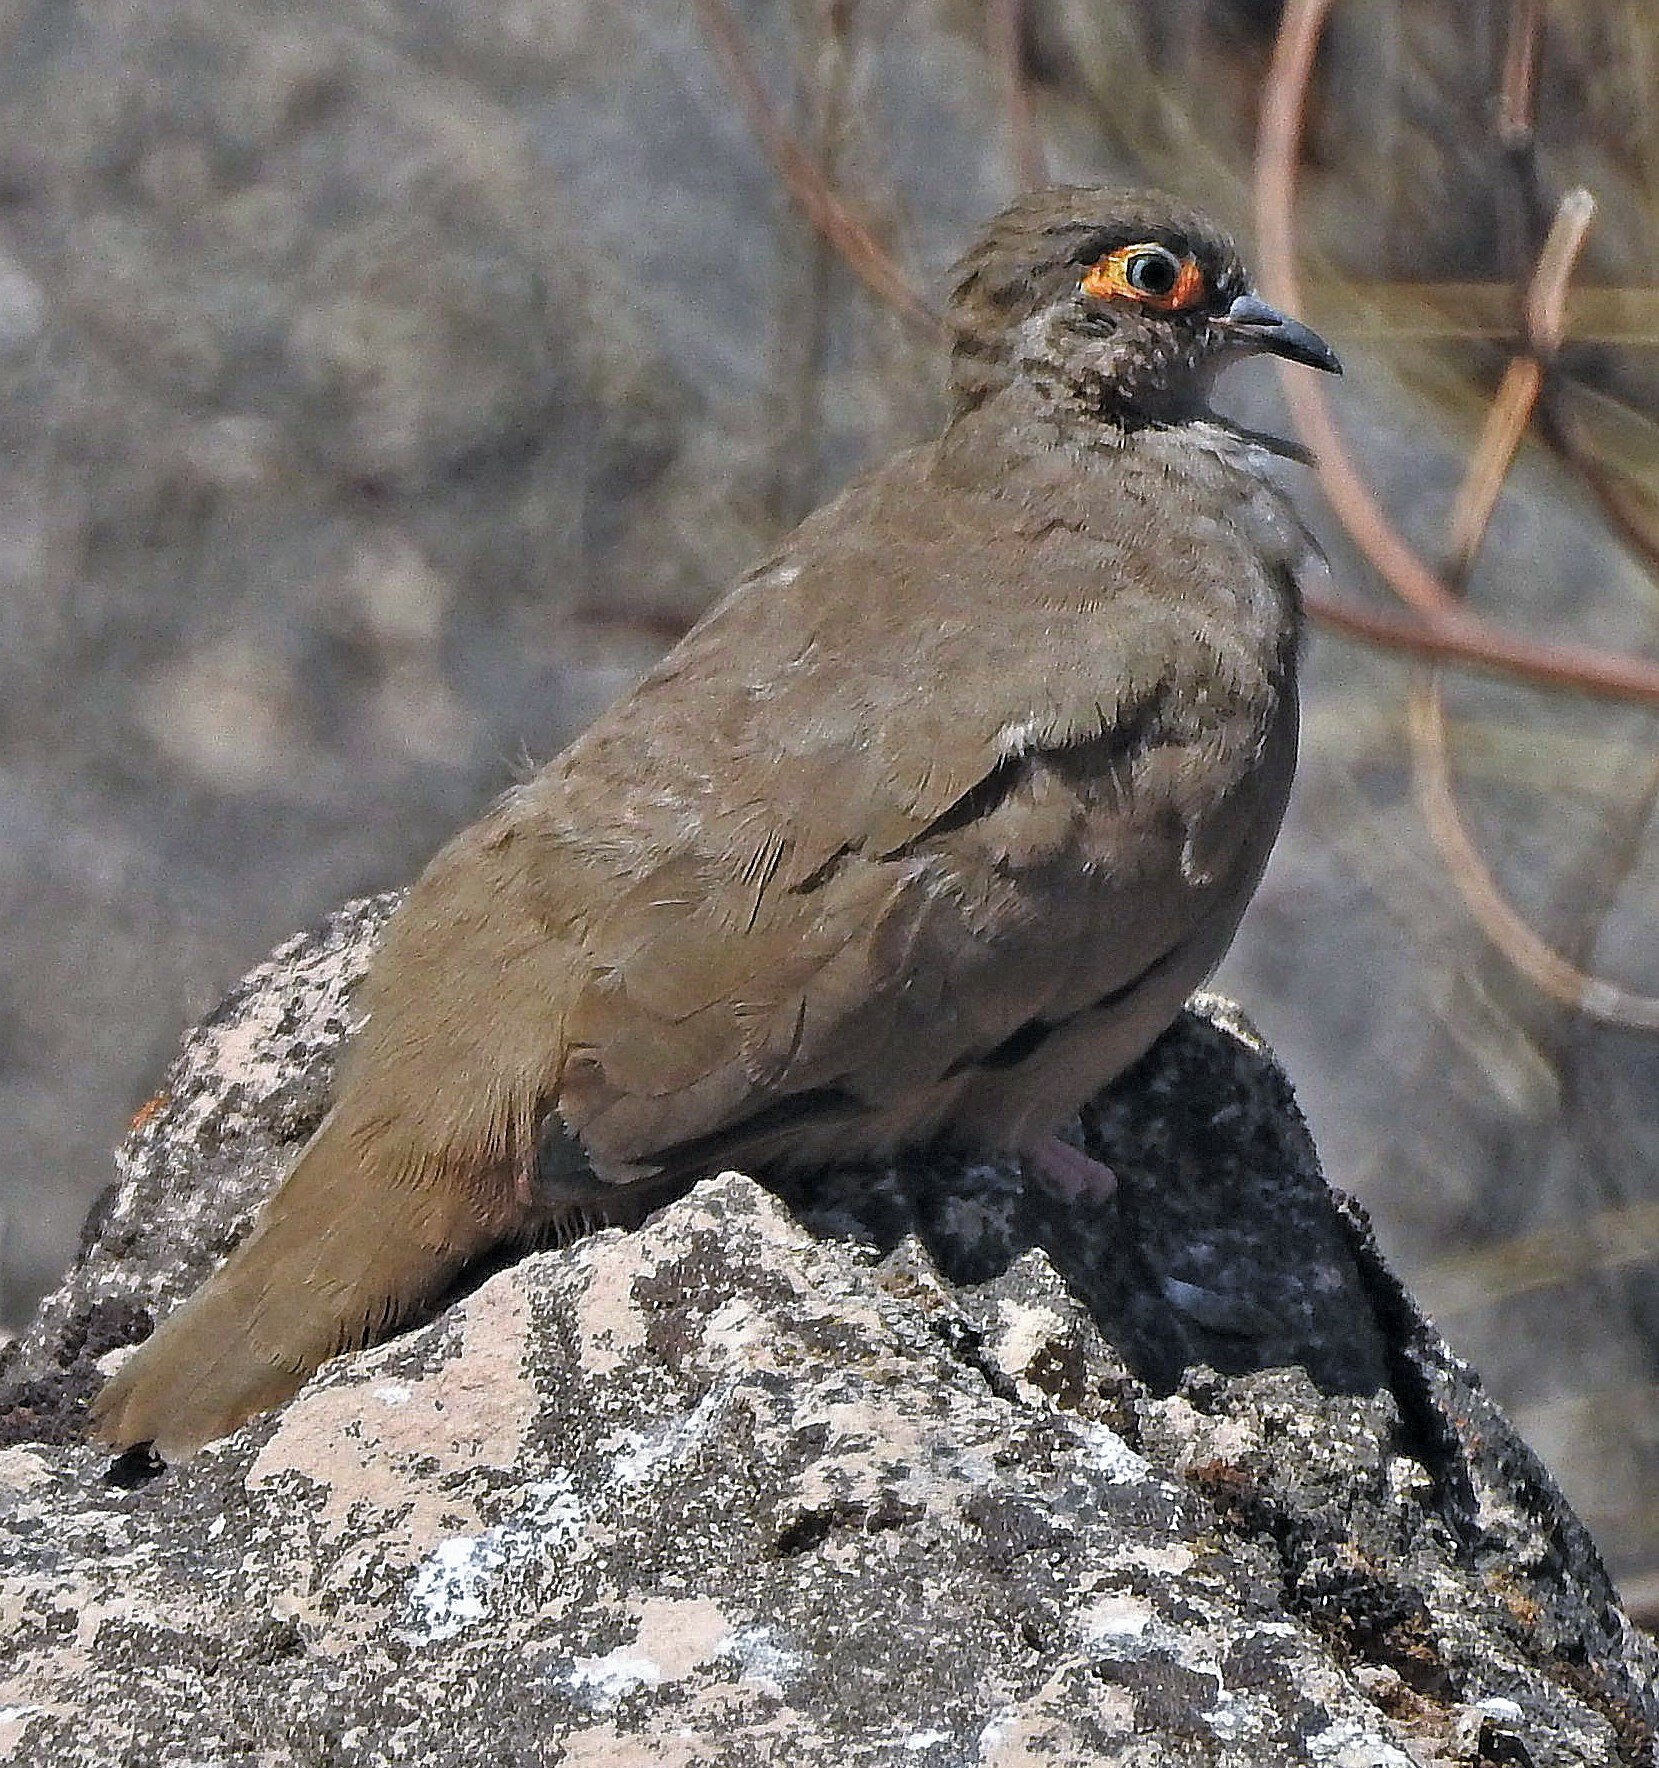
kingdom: Animalia
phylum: Chordata
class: Aves
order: Columbiformes
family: Columbidae
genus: Metriopelia
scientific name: Metriopelia morenoi
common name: Moreno's ground dove
